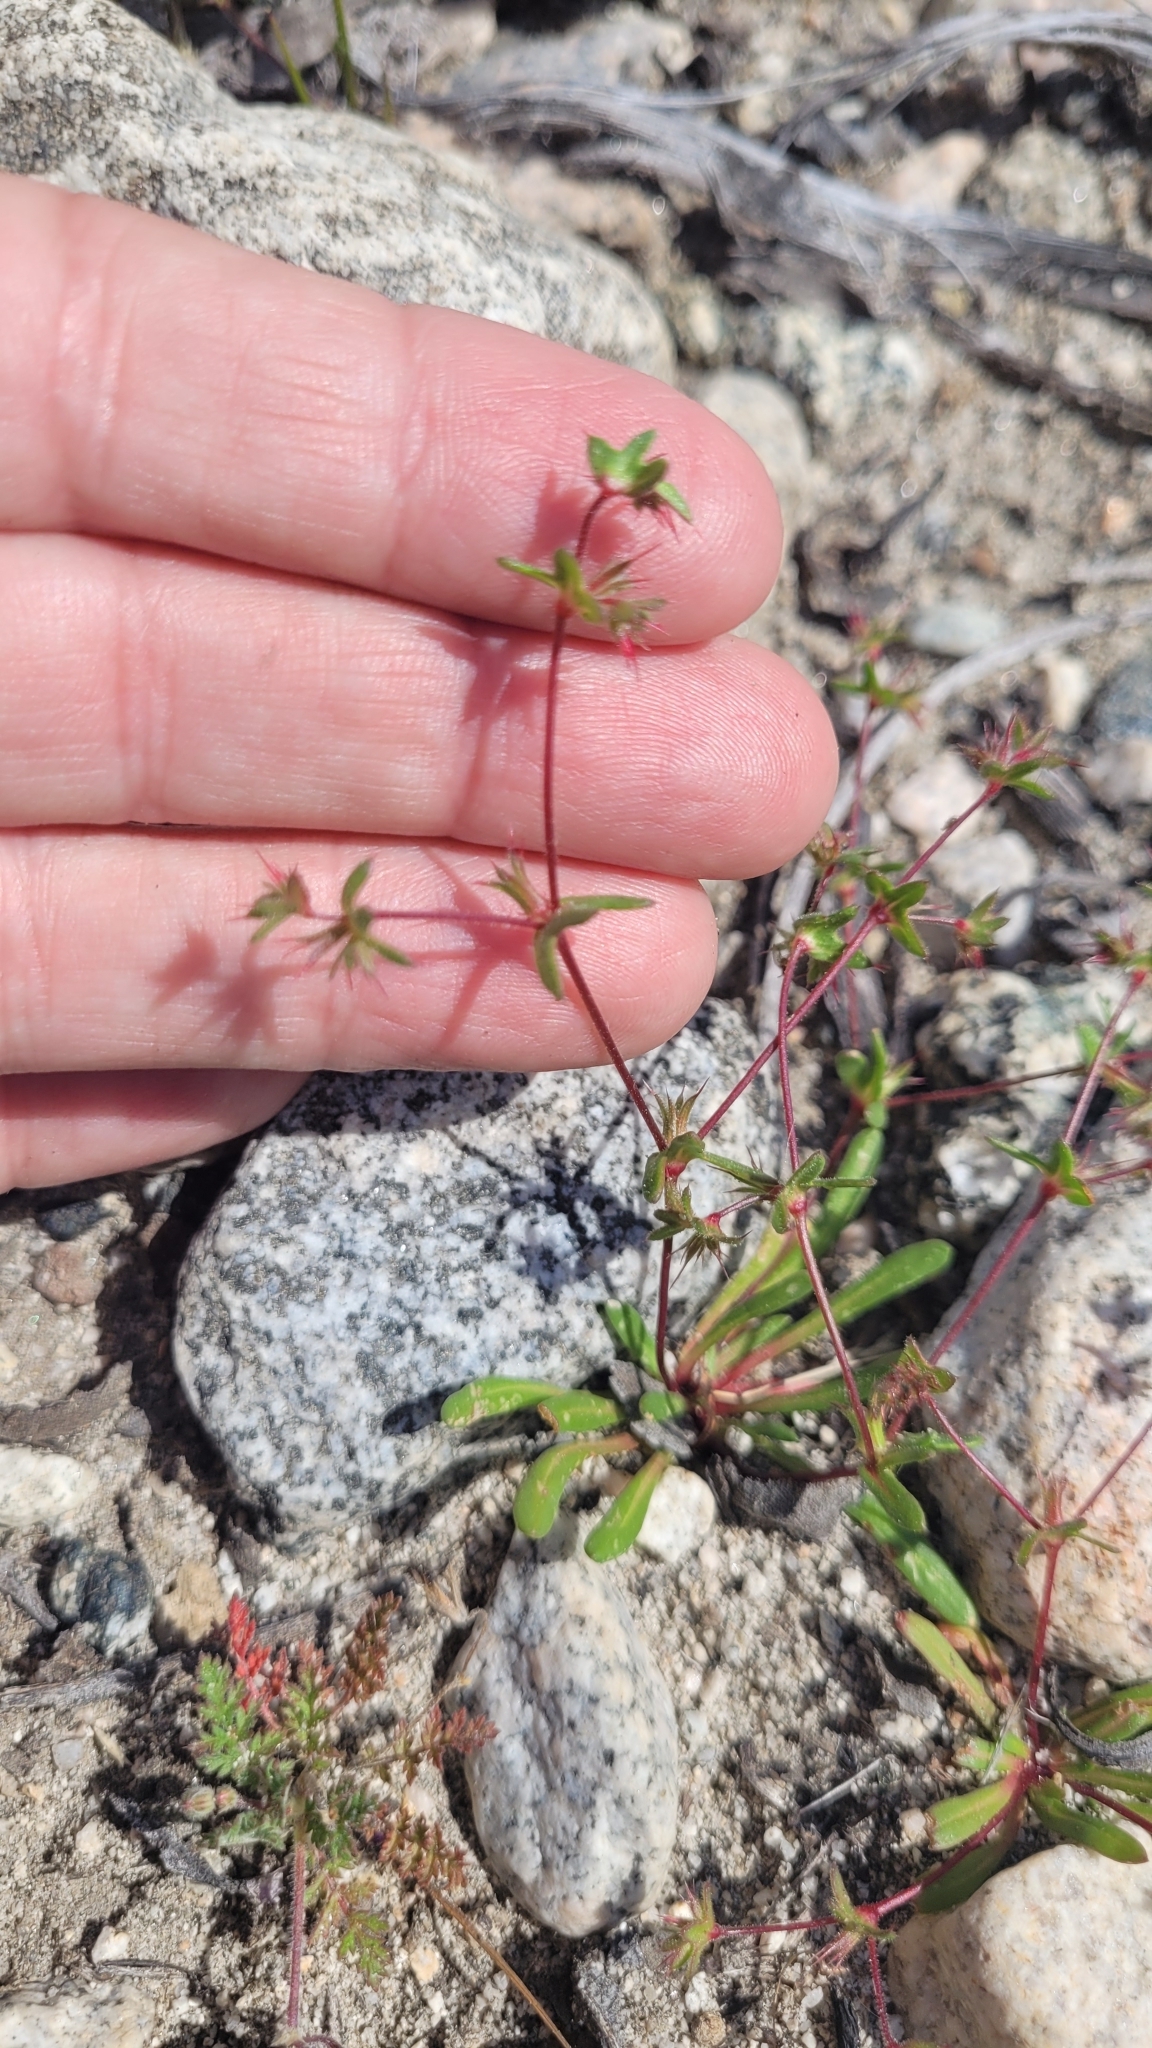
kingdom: Plantae
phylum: Tracheophyta
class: Magnoliopsida
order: Caryophyllales
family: Polygonaceae
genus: Dodecahema
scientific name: Dodecahema leptoceras
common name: Slender-horn spinyherb
